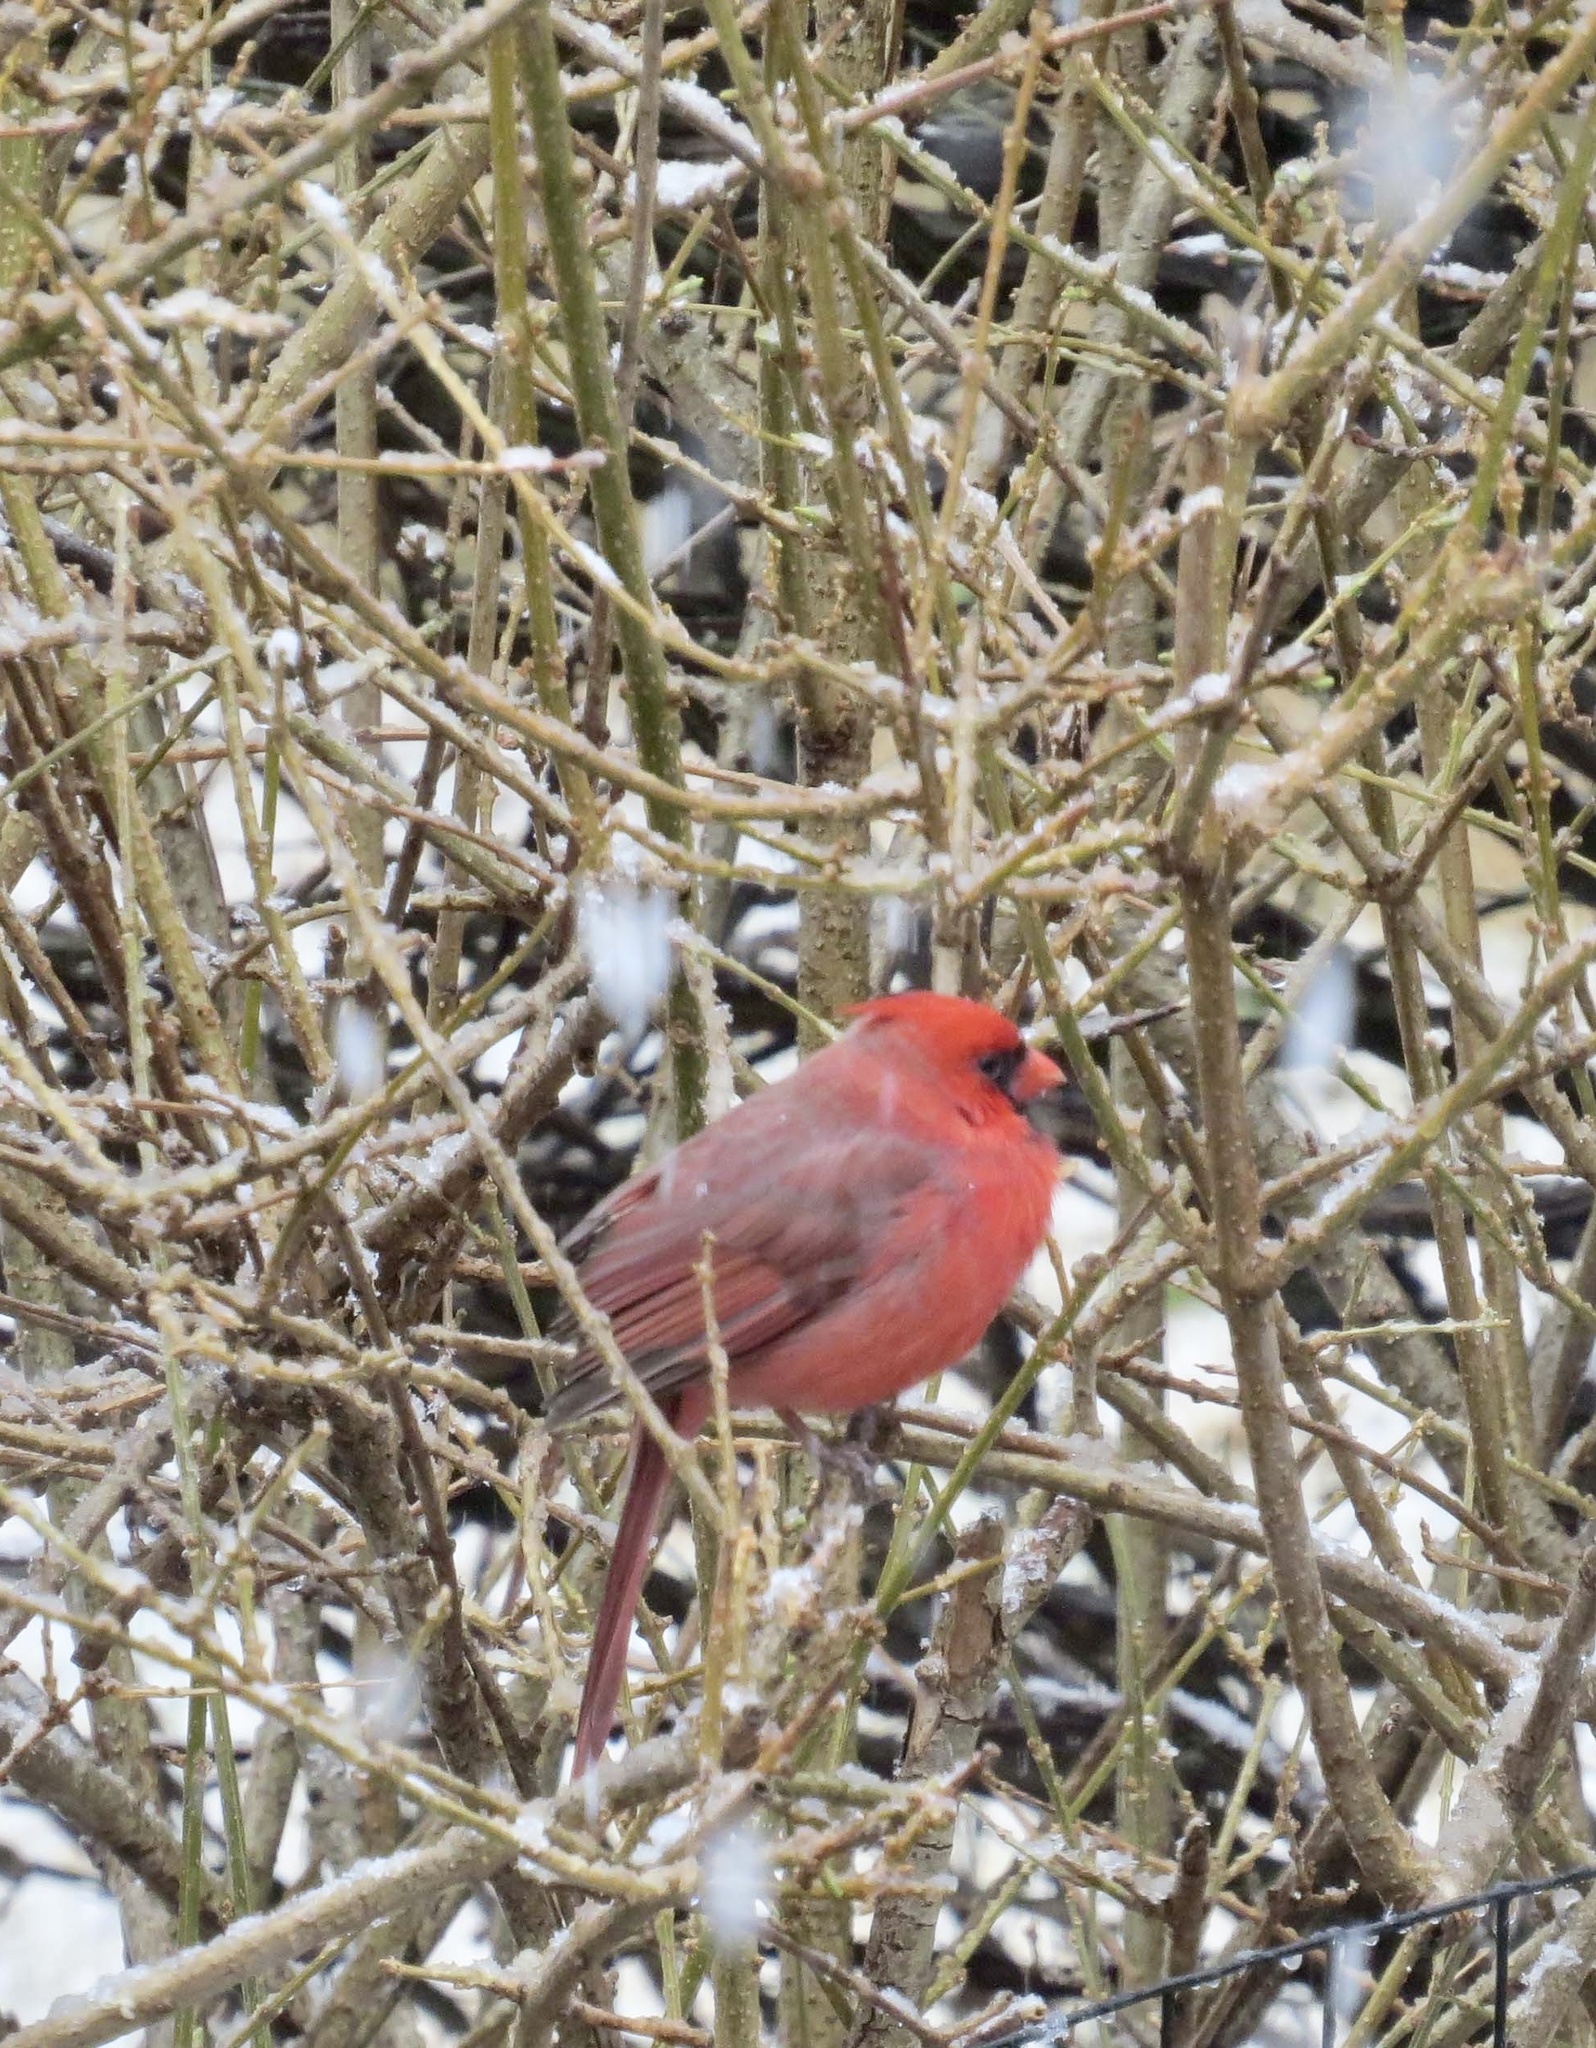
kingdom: Animalia
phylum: Chordata
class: Aves
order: Passeriformes
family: Cardinalidae
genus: Cardinalis
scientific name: Cardinalis cardinalis
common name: Northern cardinal
